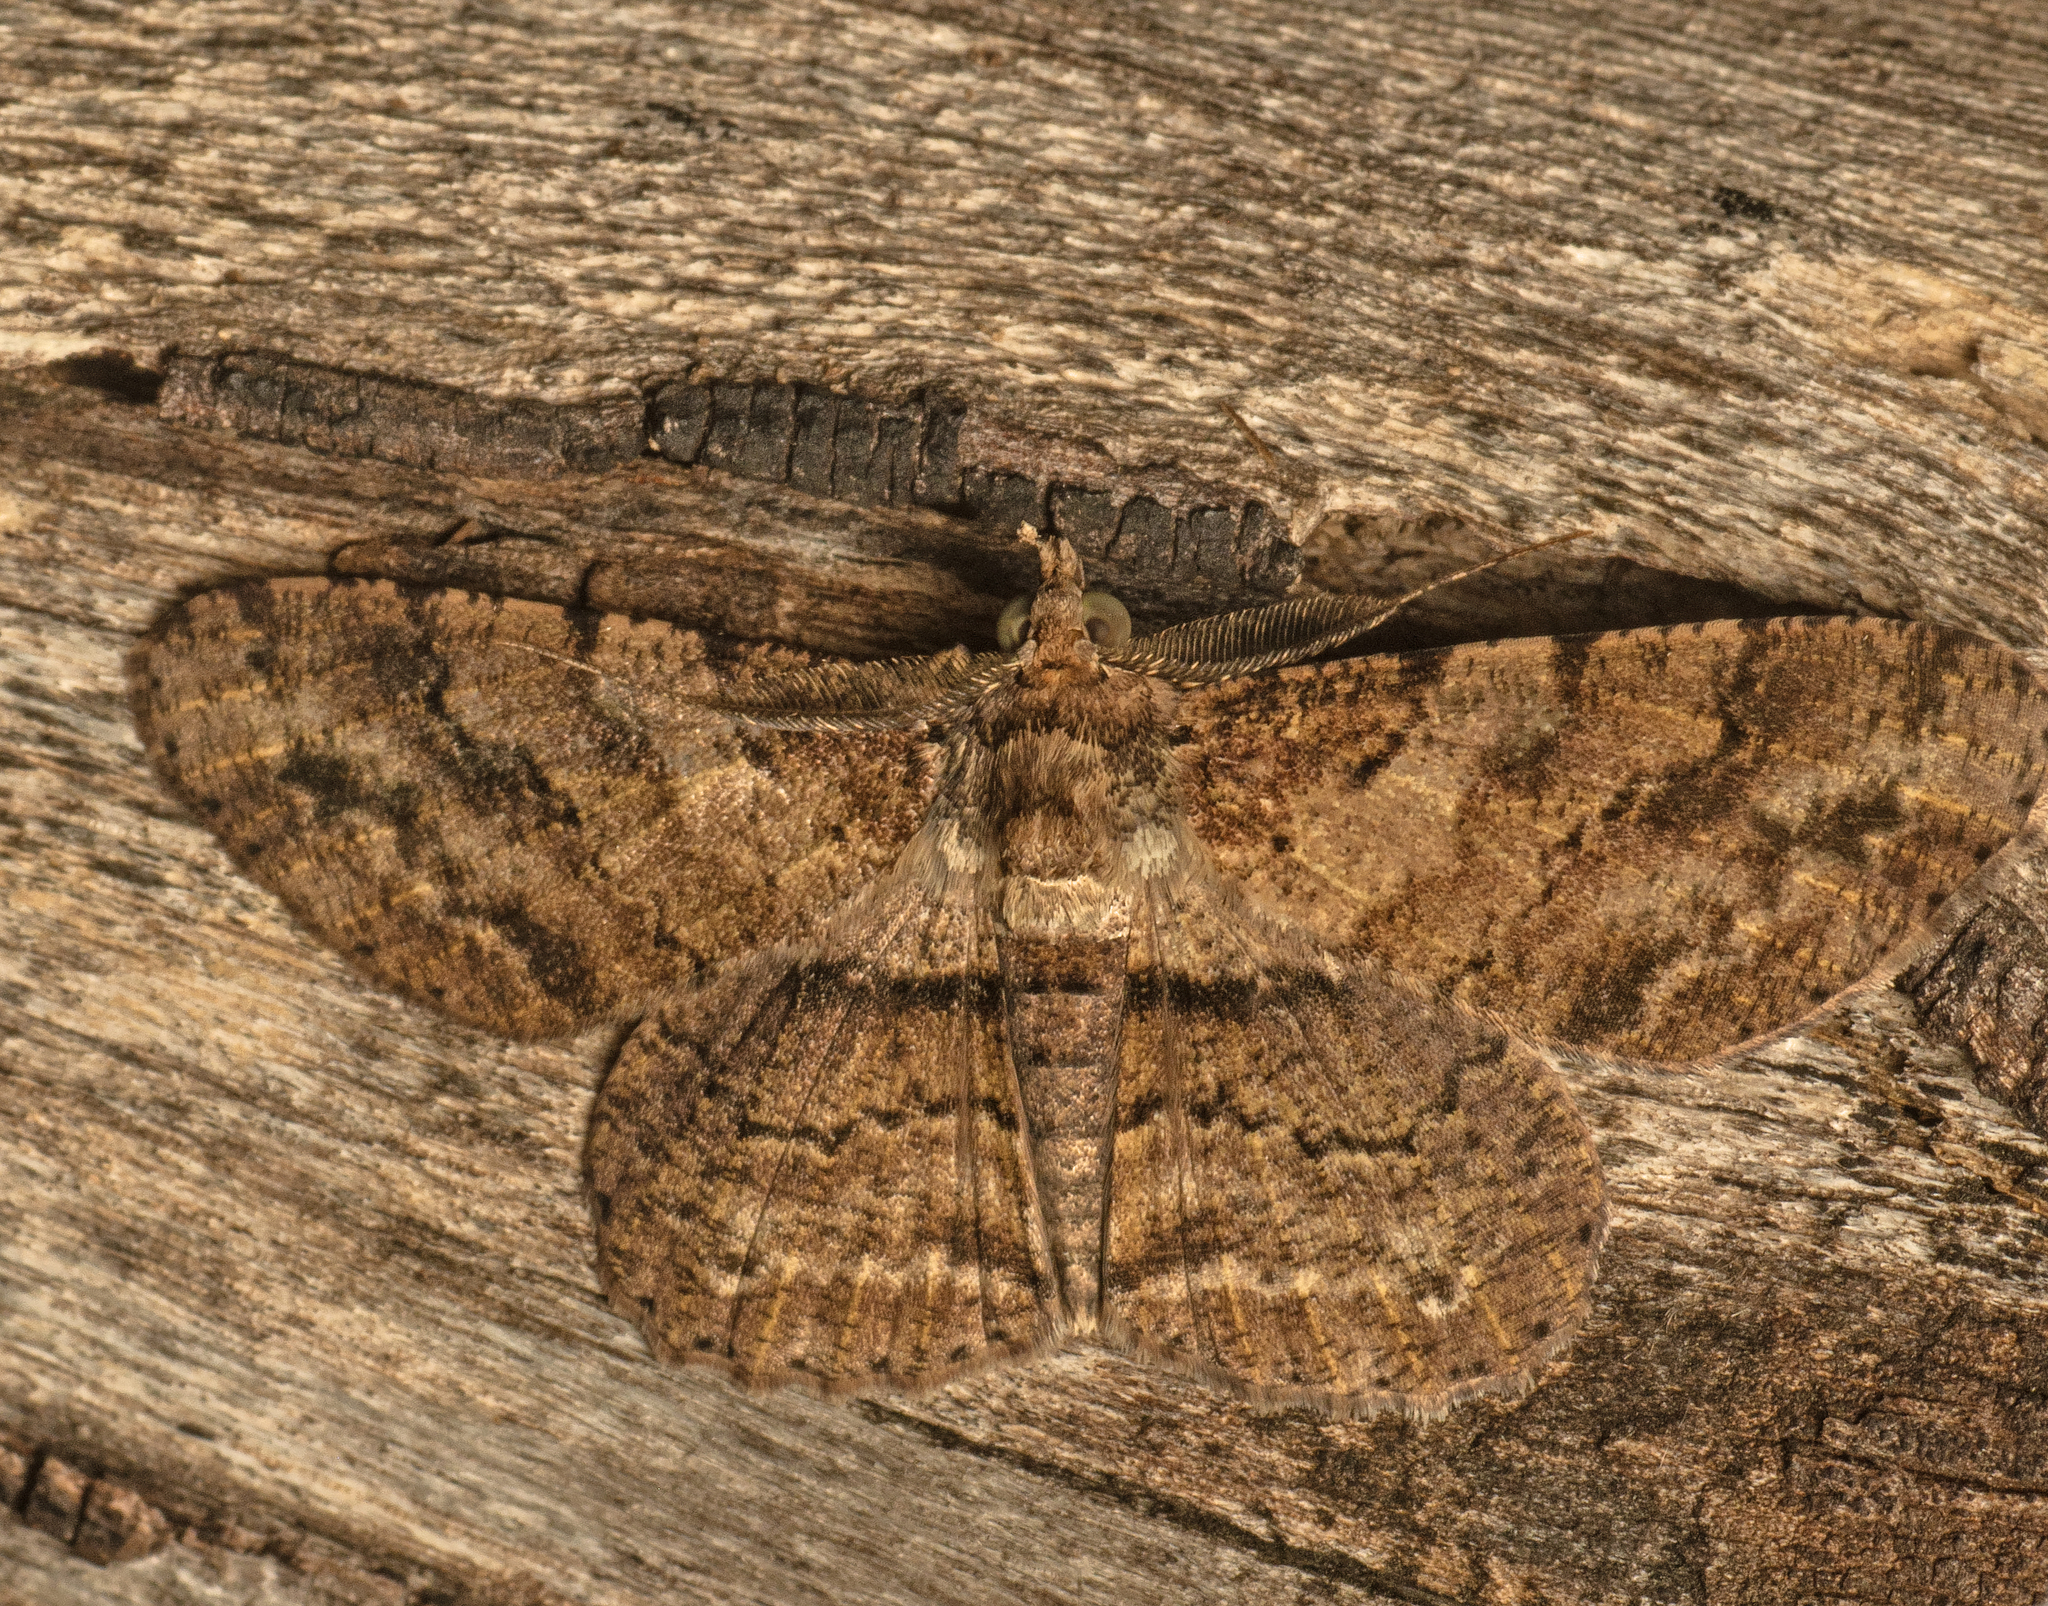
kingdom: Animalia
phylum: Arthropoda
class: Insecta
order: Lepidoptera
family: Geometridae
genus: Cleora
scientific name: Cleora repetita
